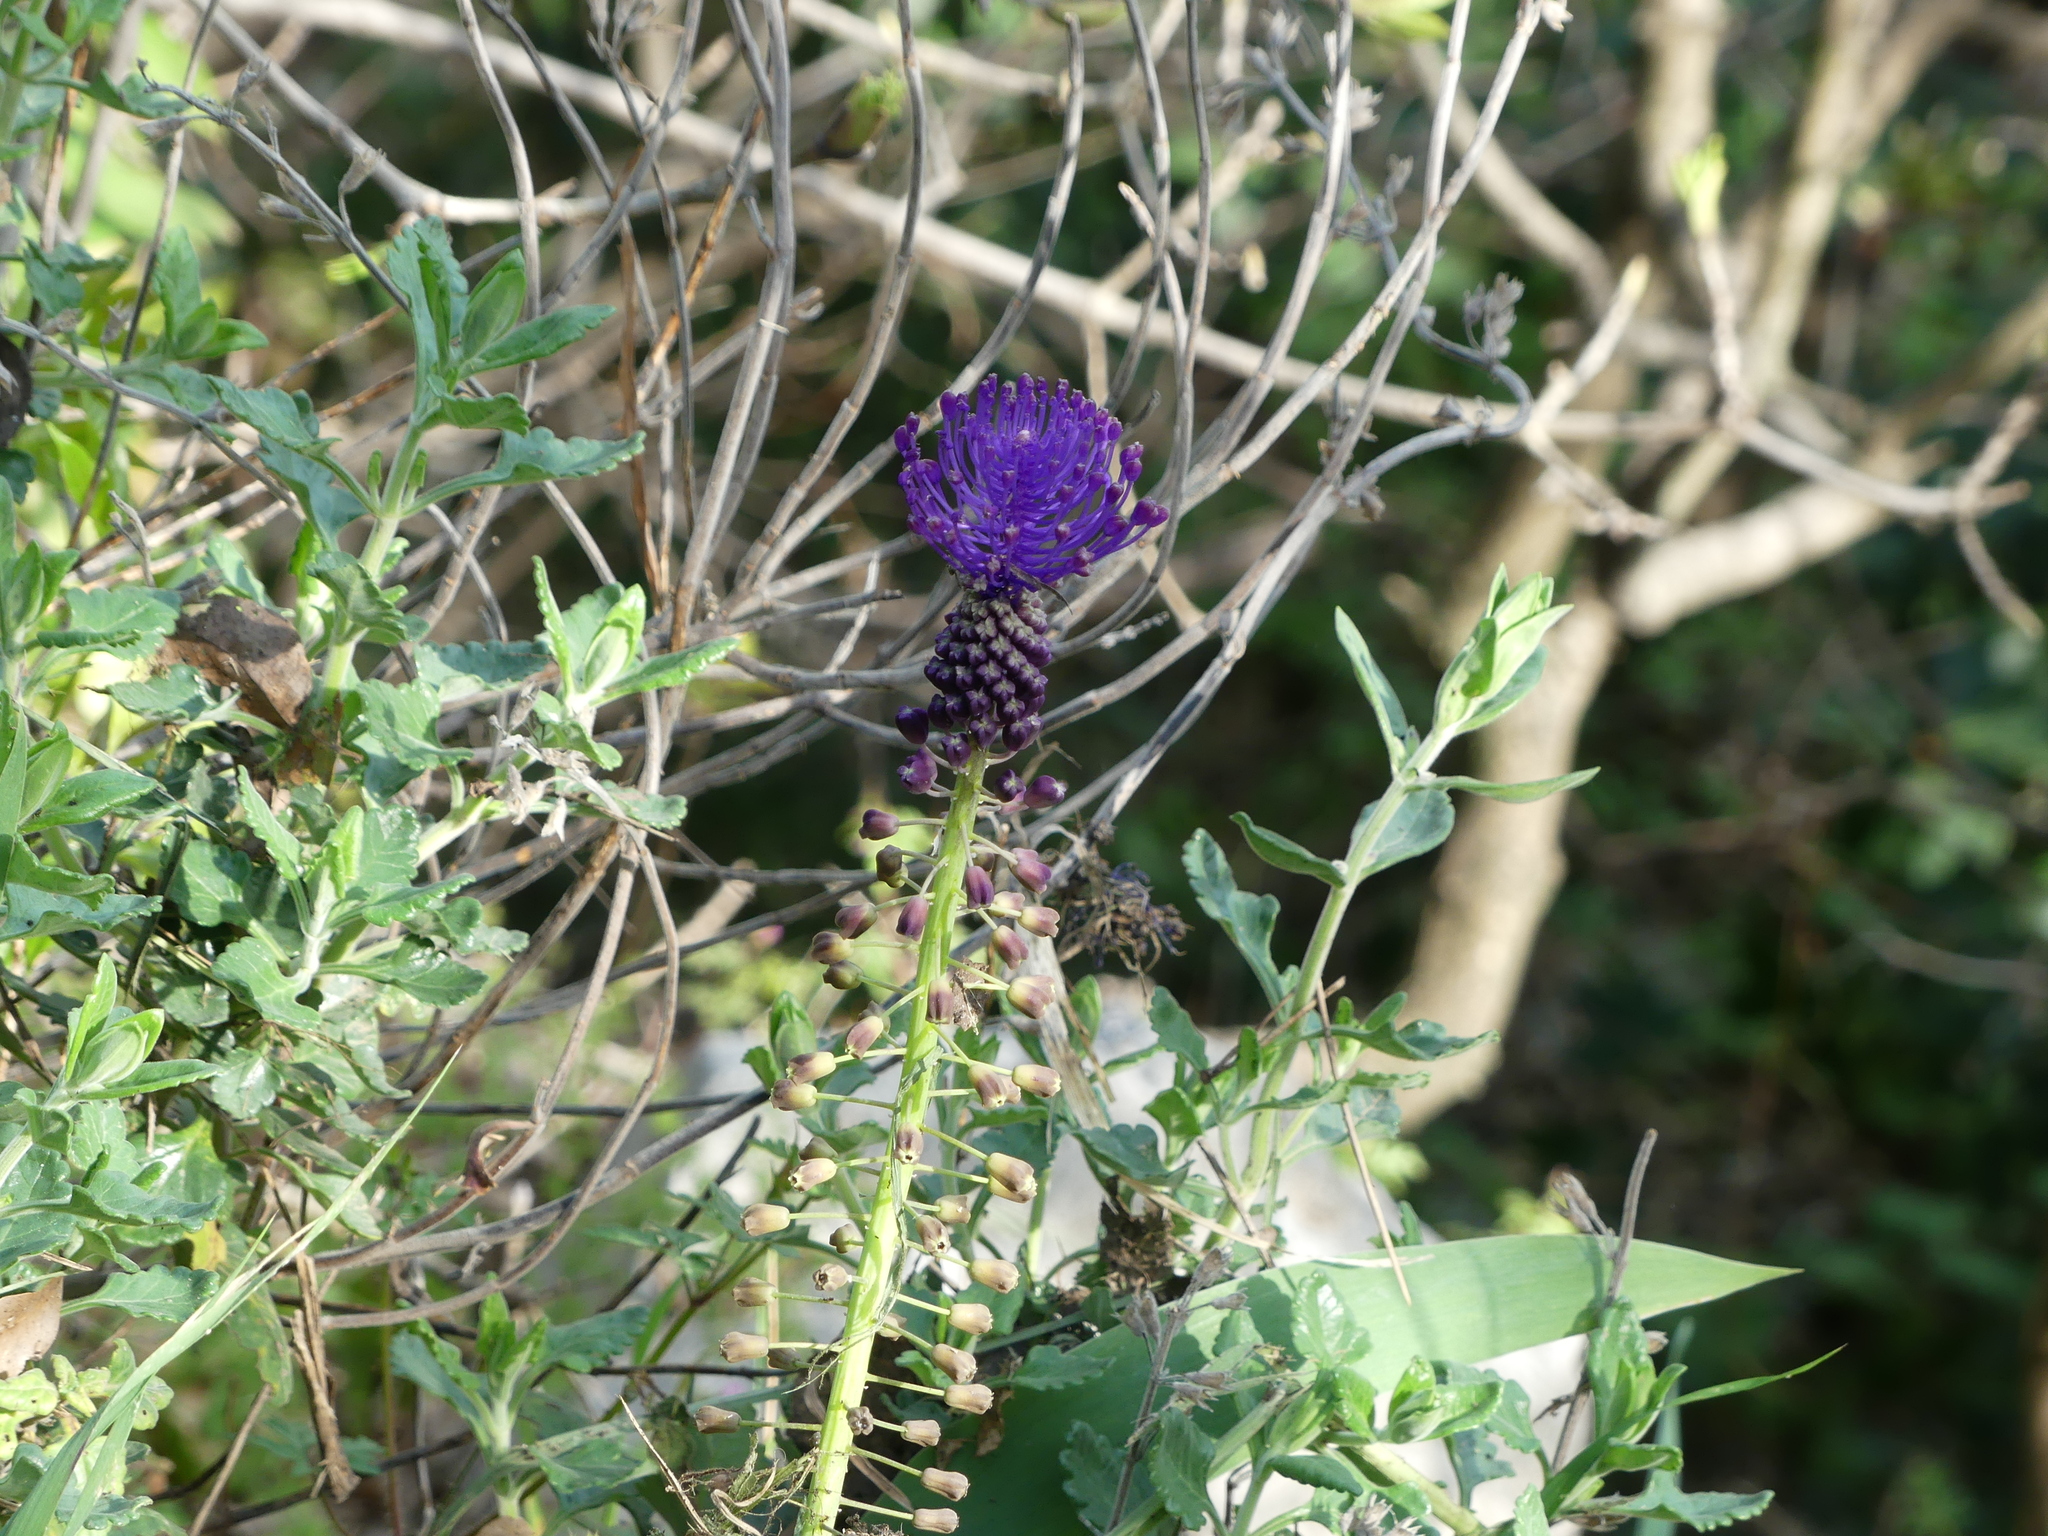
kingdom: Plantae
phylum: Tracheophyta
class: Liliopsida
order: Asparagales
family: Asparagaceae
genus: Muscari
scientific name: Muscari comosum
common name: Tassel hyacinth
